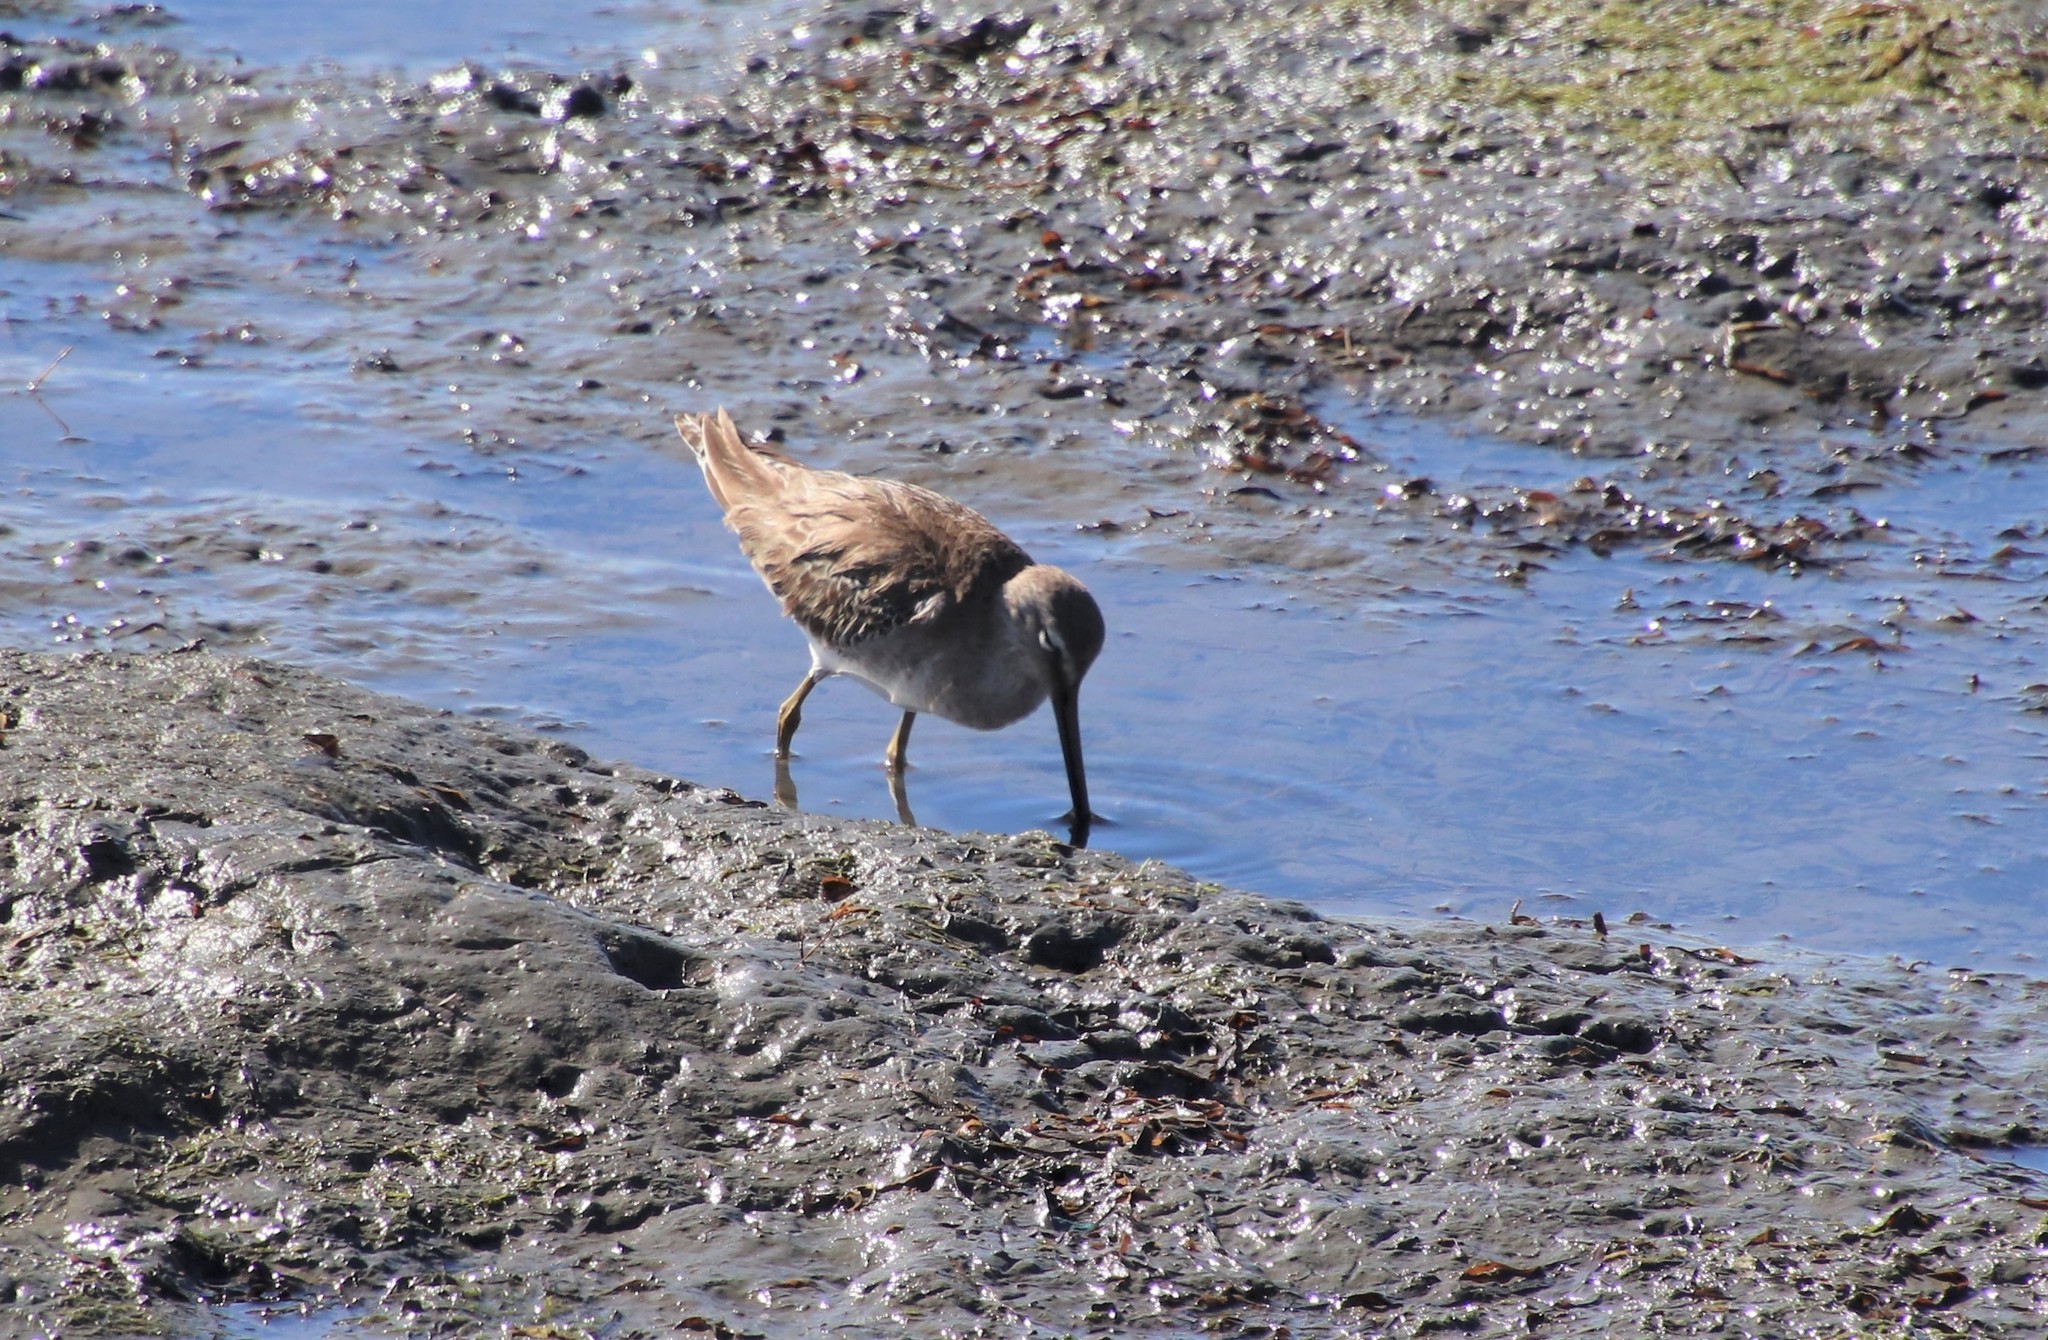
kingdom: Animalia
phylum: Chordata
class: Aves
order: Charadriiformes
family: Scolopacidae
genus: Limnodromus
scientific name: Limnodromus
